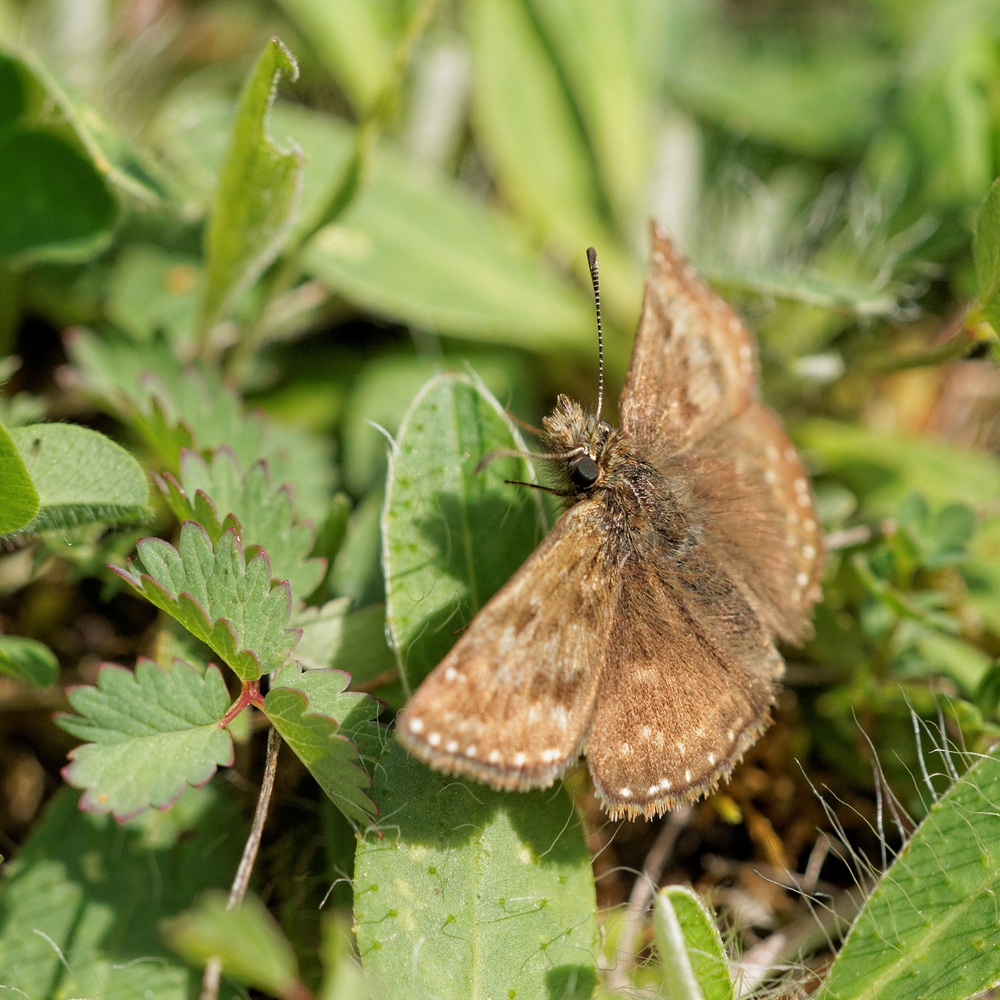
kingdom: Animalia
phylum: Arthropoda
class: Insecta
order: Lepidoptera
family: Hesperiidae
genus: Erynnis
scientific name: Erynnis tages
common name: Dingy skipper
